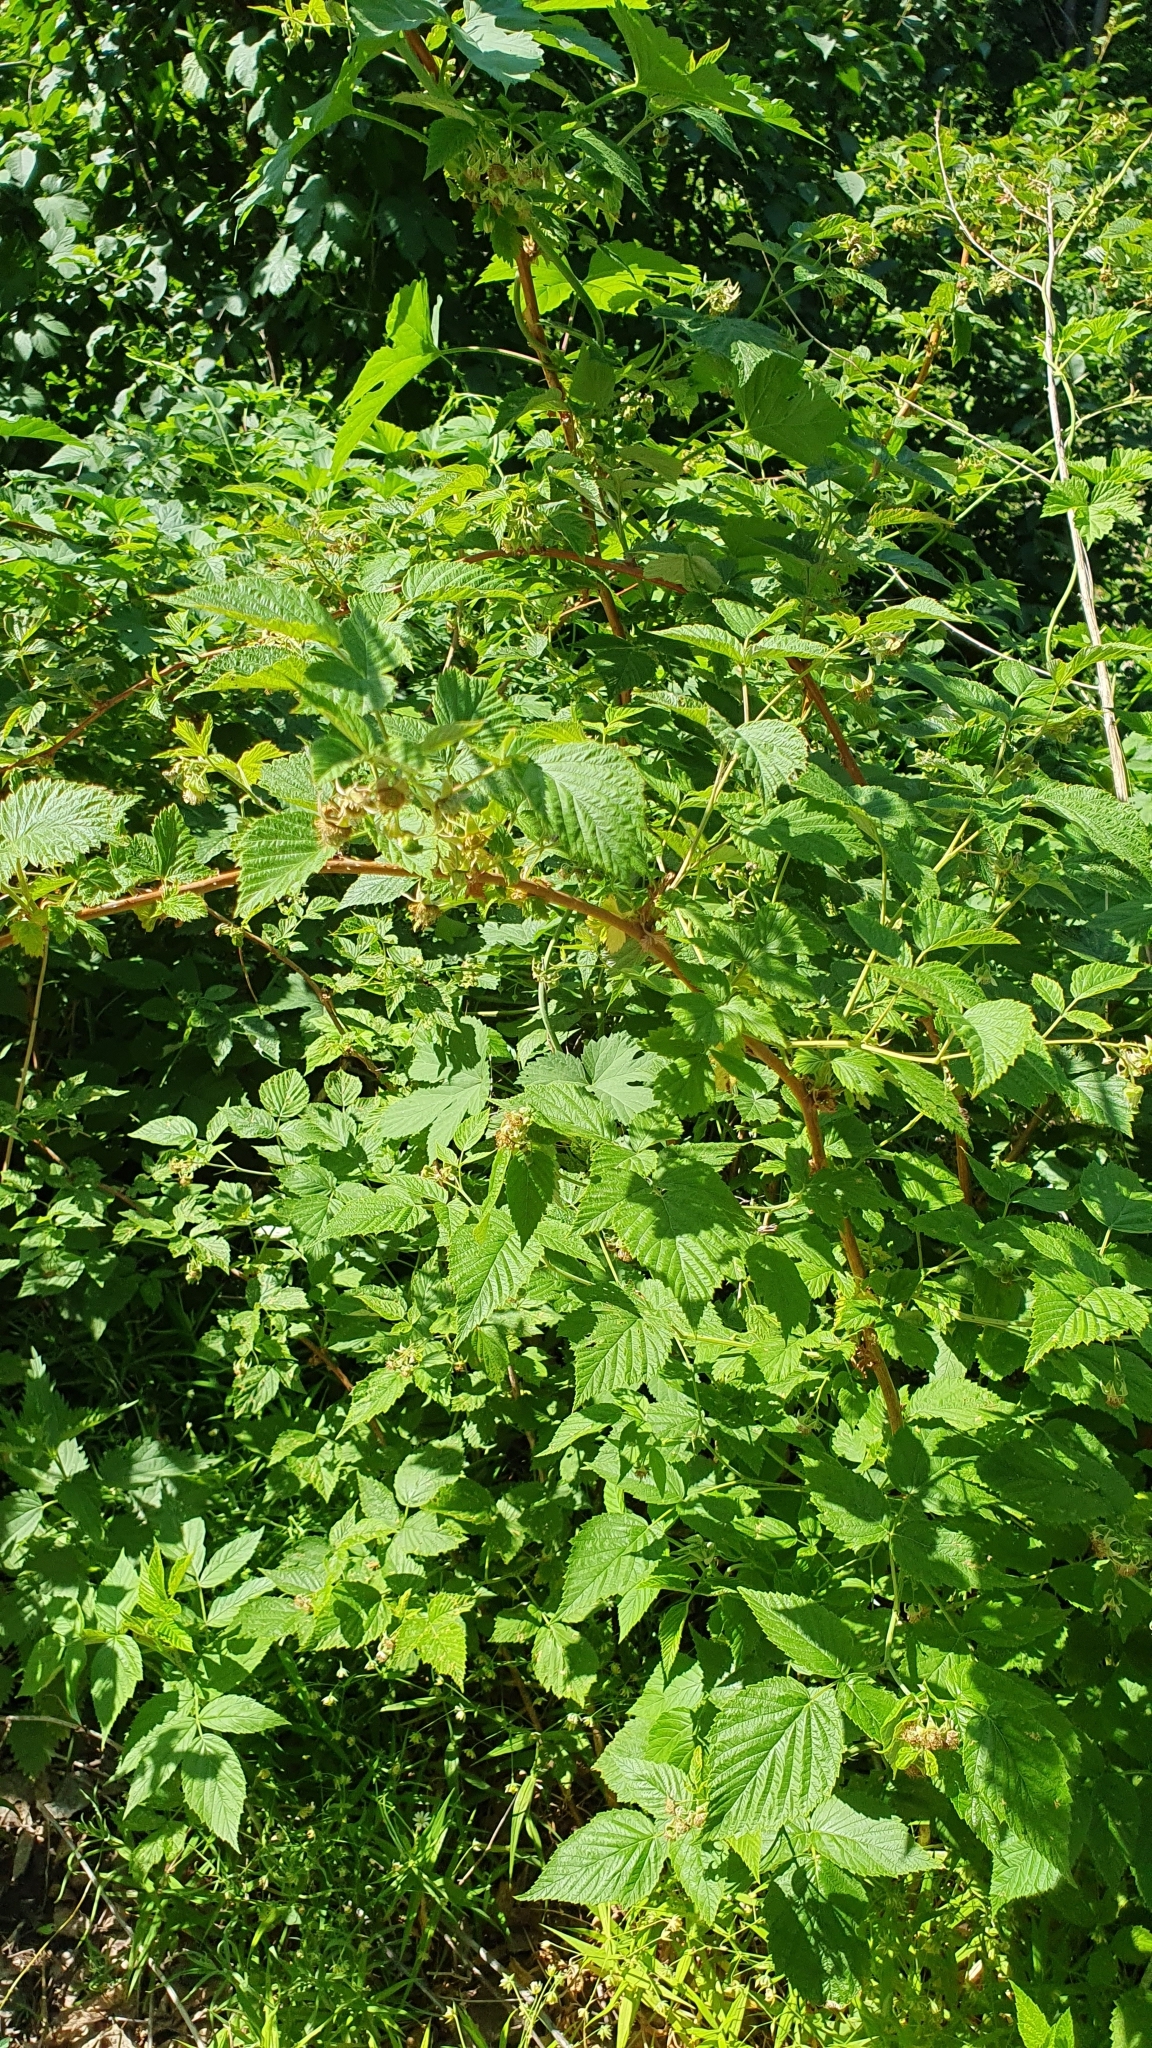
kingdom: Plantae
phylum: Tracheophyta
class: Magnoliopsida
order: Rosales
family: Rosaceae
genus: Rubus
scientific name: Rubus idaeus
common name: Raspberry
